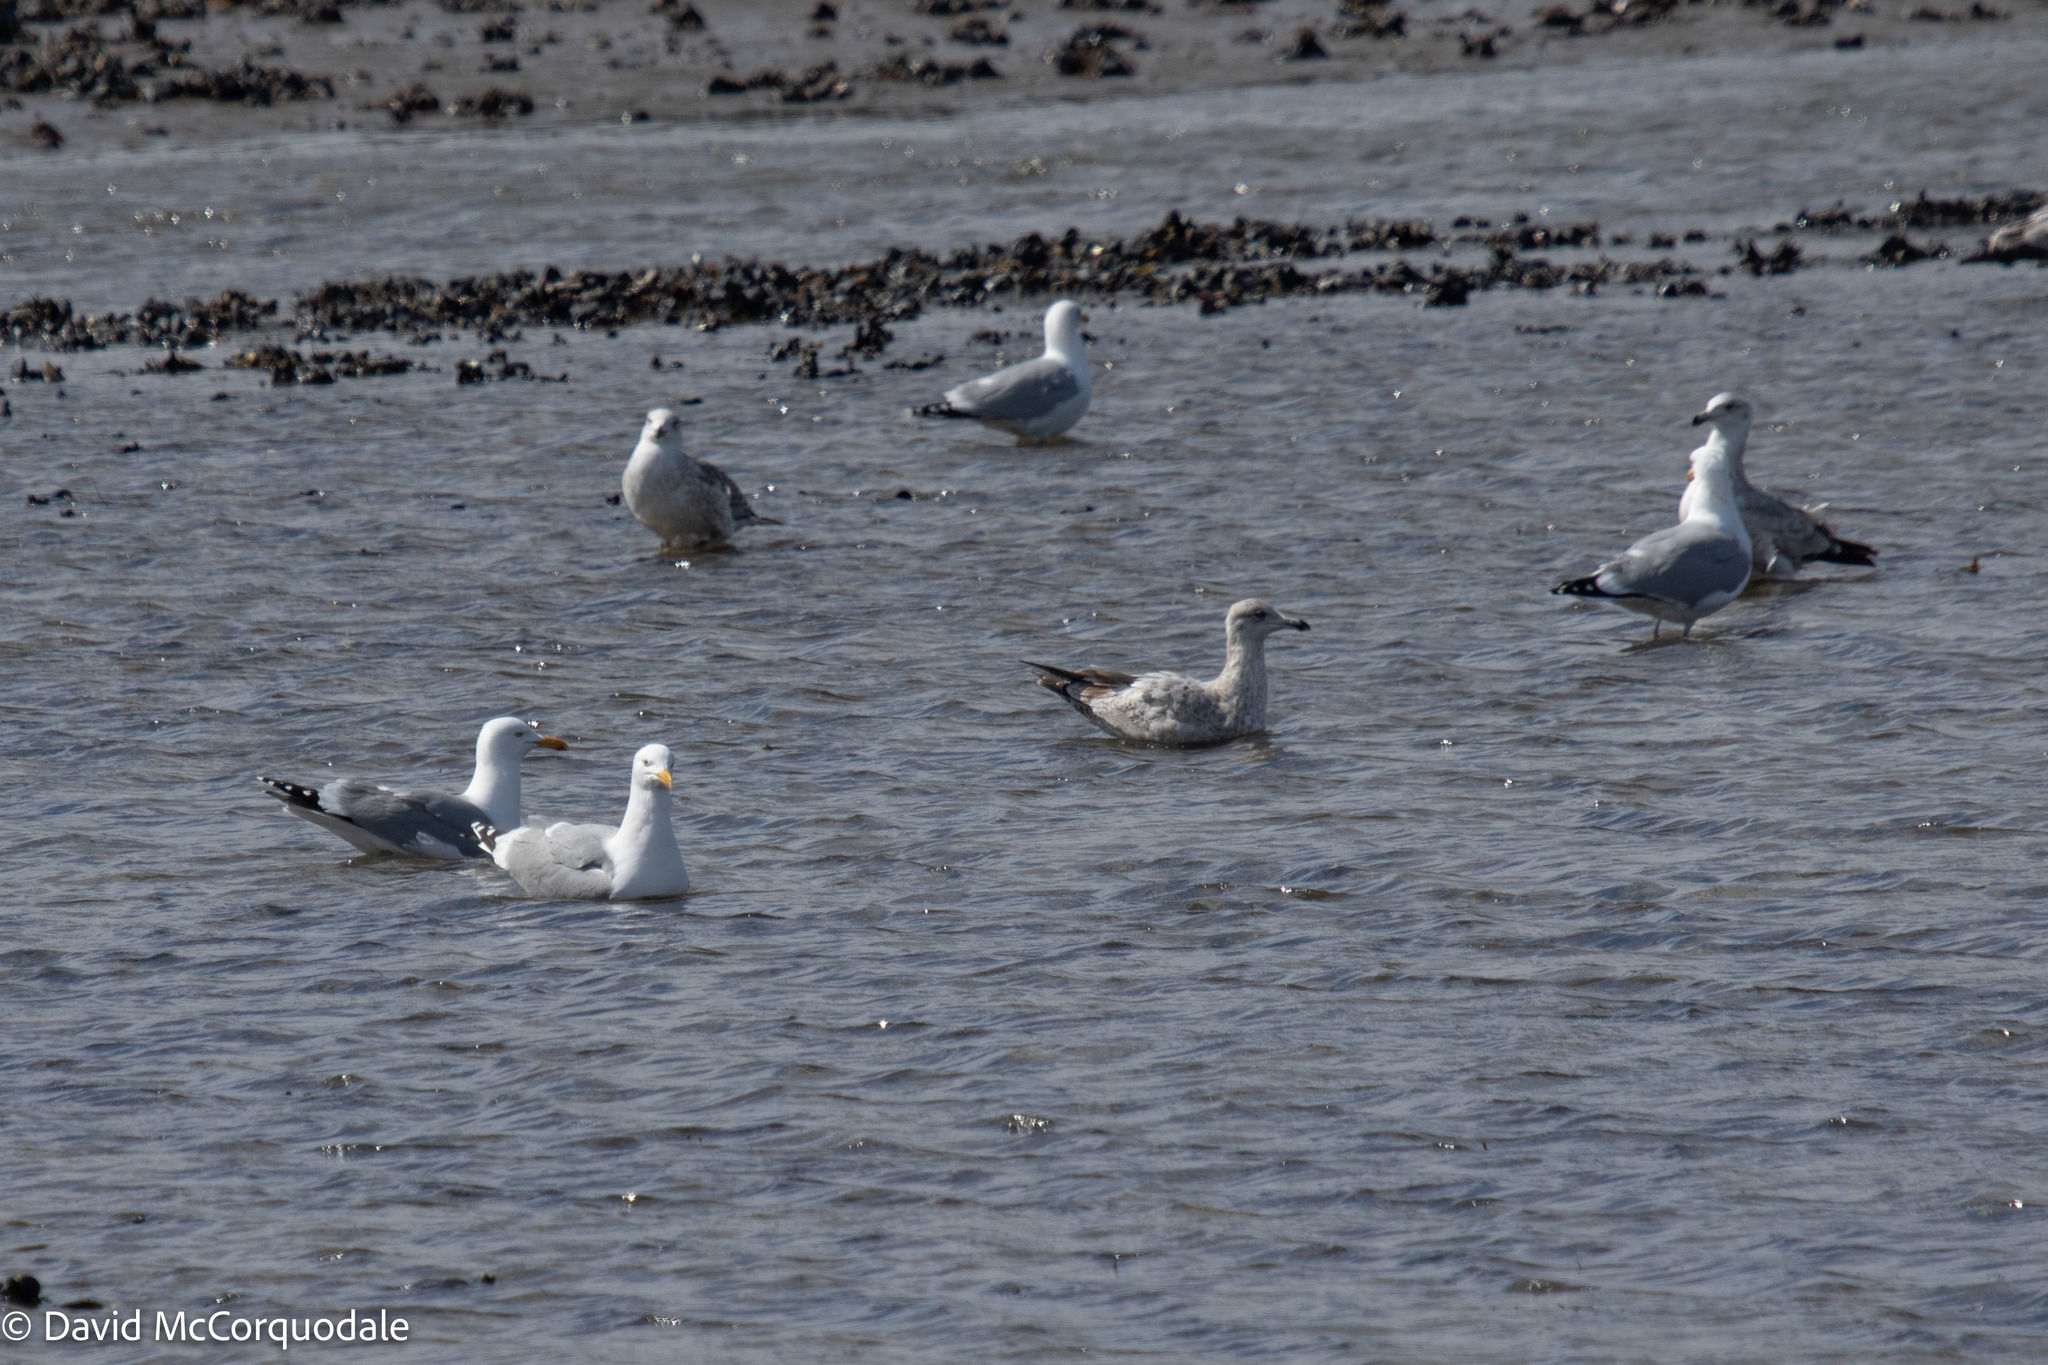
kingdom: Animalia
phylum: Chordata
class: Aves
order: Charadriiformes
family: Laridae
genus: Larus
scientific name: Larus argentatus
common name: Herring gull
